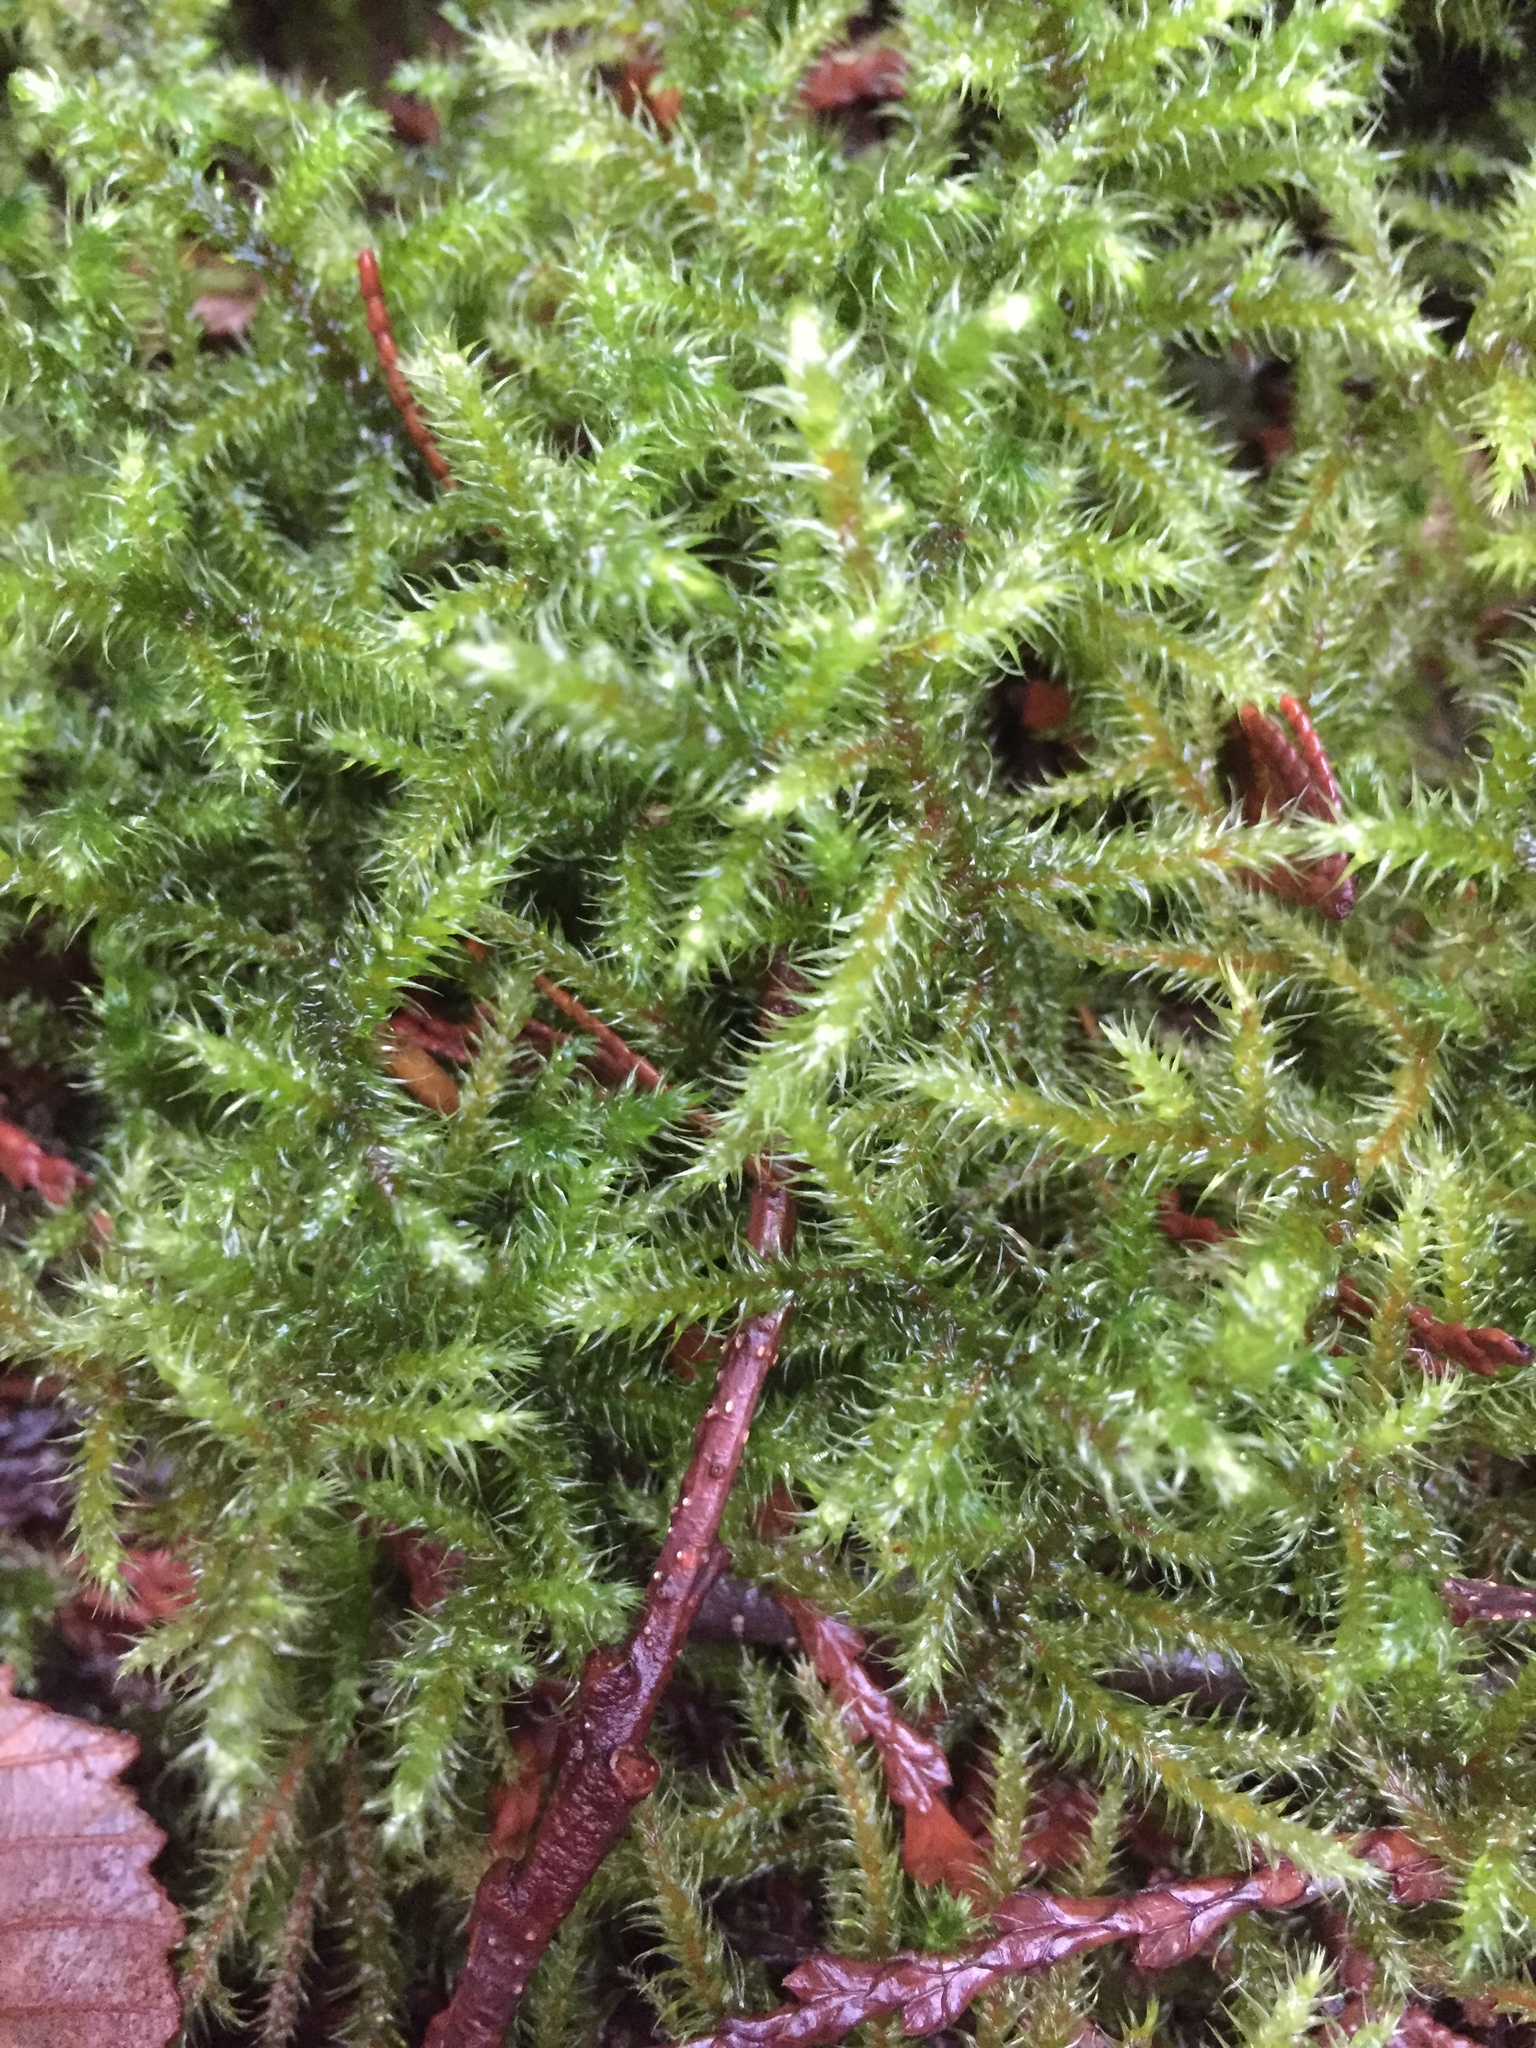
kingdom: Plantae
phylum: Bryophyta
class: Bryopsida
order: Hypnales
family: Hylocomiaceae
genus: Rhytidiadelphus
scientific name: Rhytidiadelphus loreus
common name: Lanky moss
